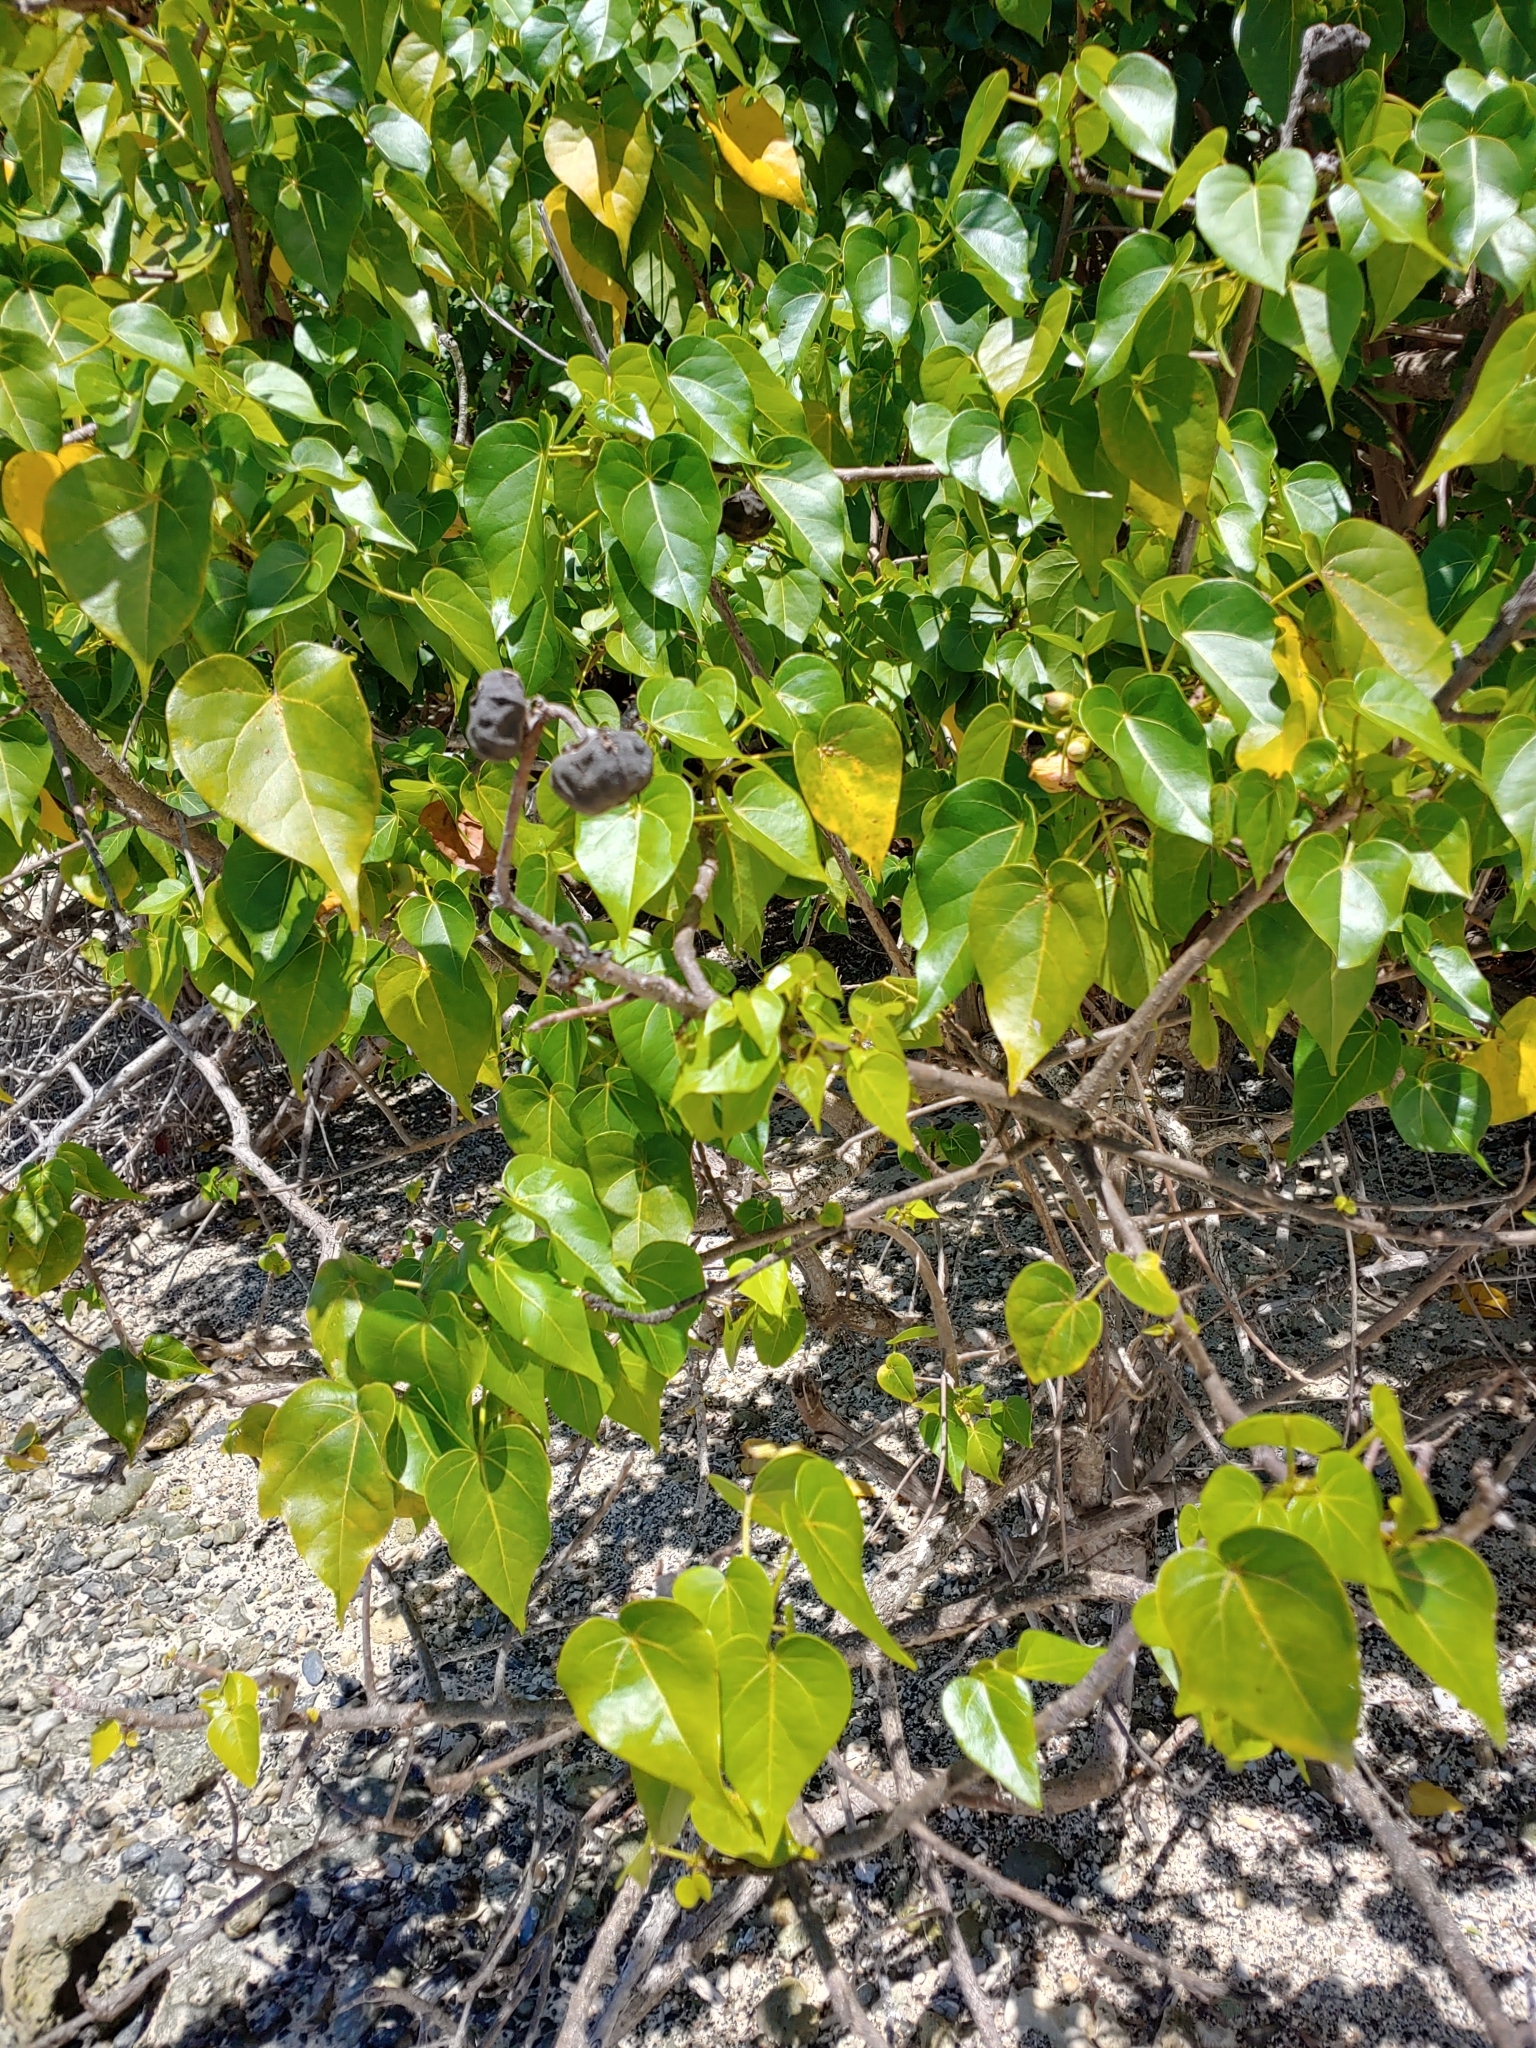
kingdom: Plantae
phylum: Tracheophyta
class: Magnoliopsida
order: Malvales
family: Malvaceae
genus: Thespesia
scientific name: Thespesia populnea
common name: Seaside mahoe
